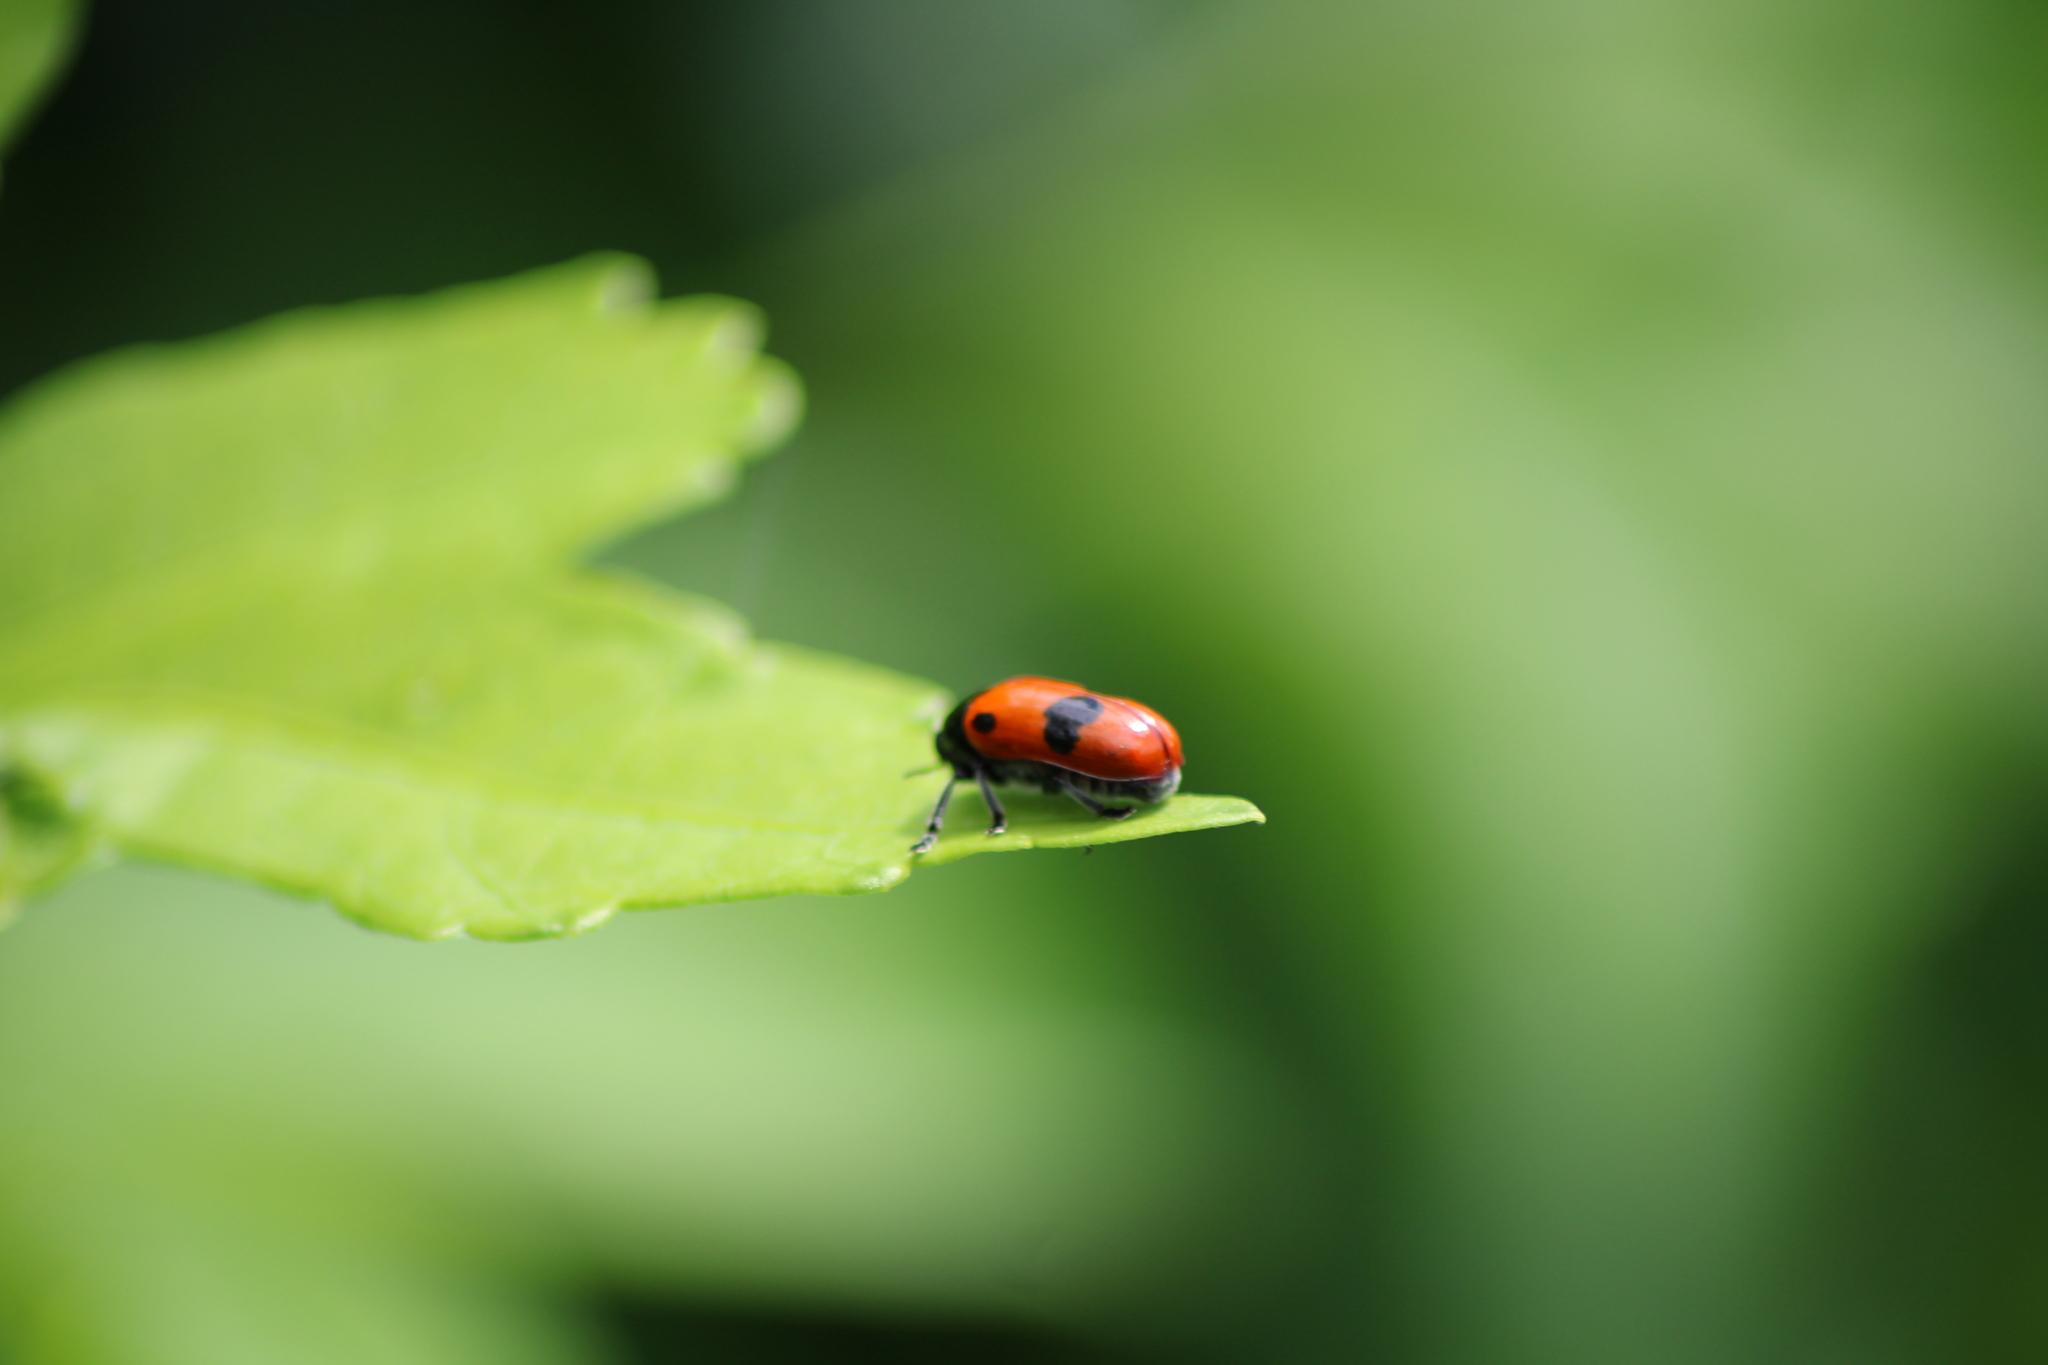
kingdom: Animalia
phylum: Arthropoda
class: Insecta
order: Coleoptera
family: Chrysomelidae
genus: Clytra
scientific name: Clytra laeviuscula
